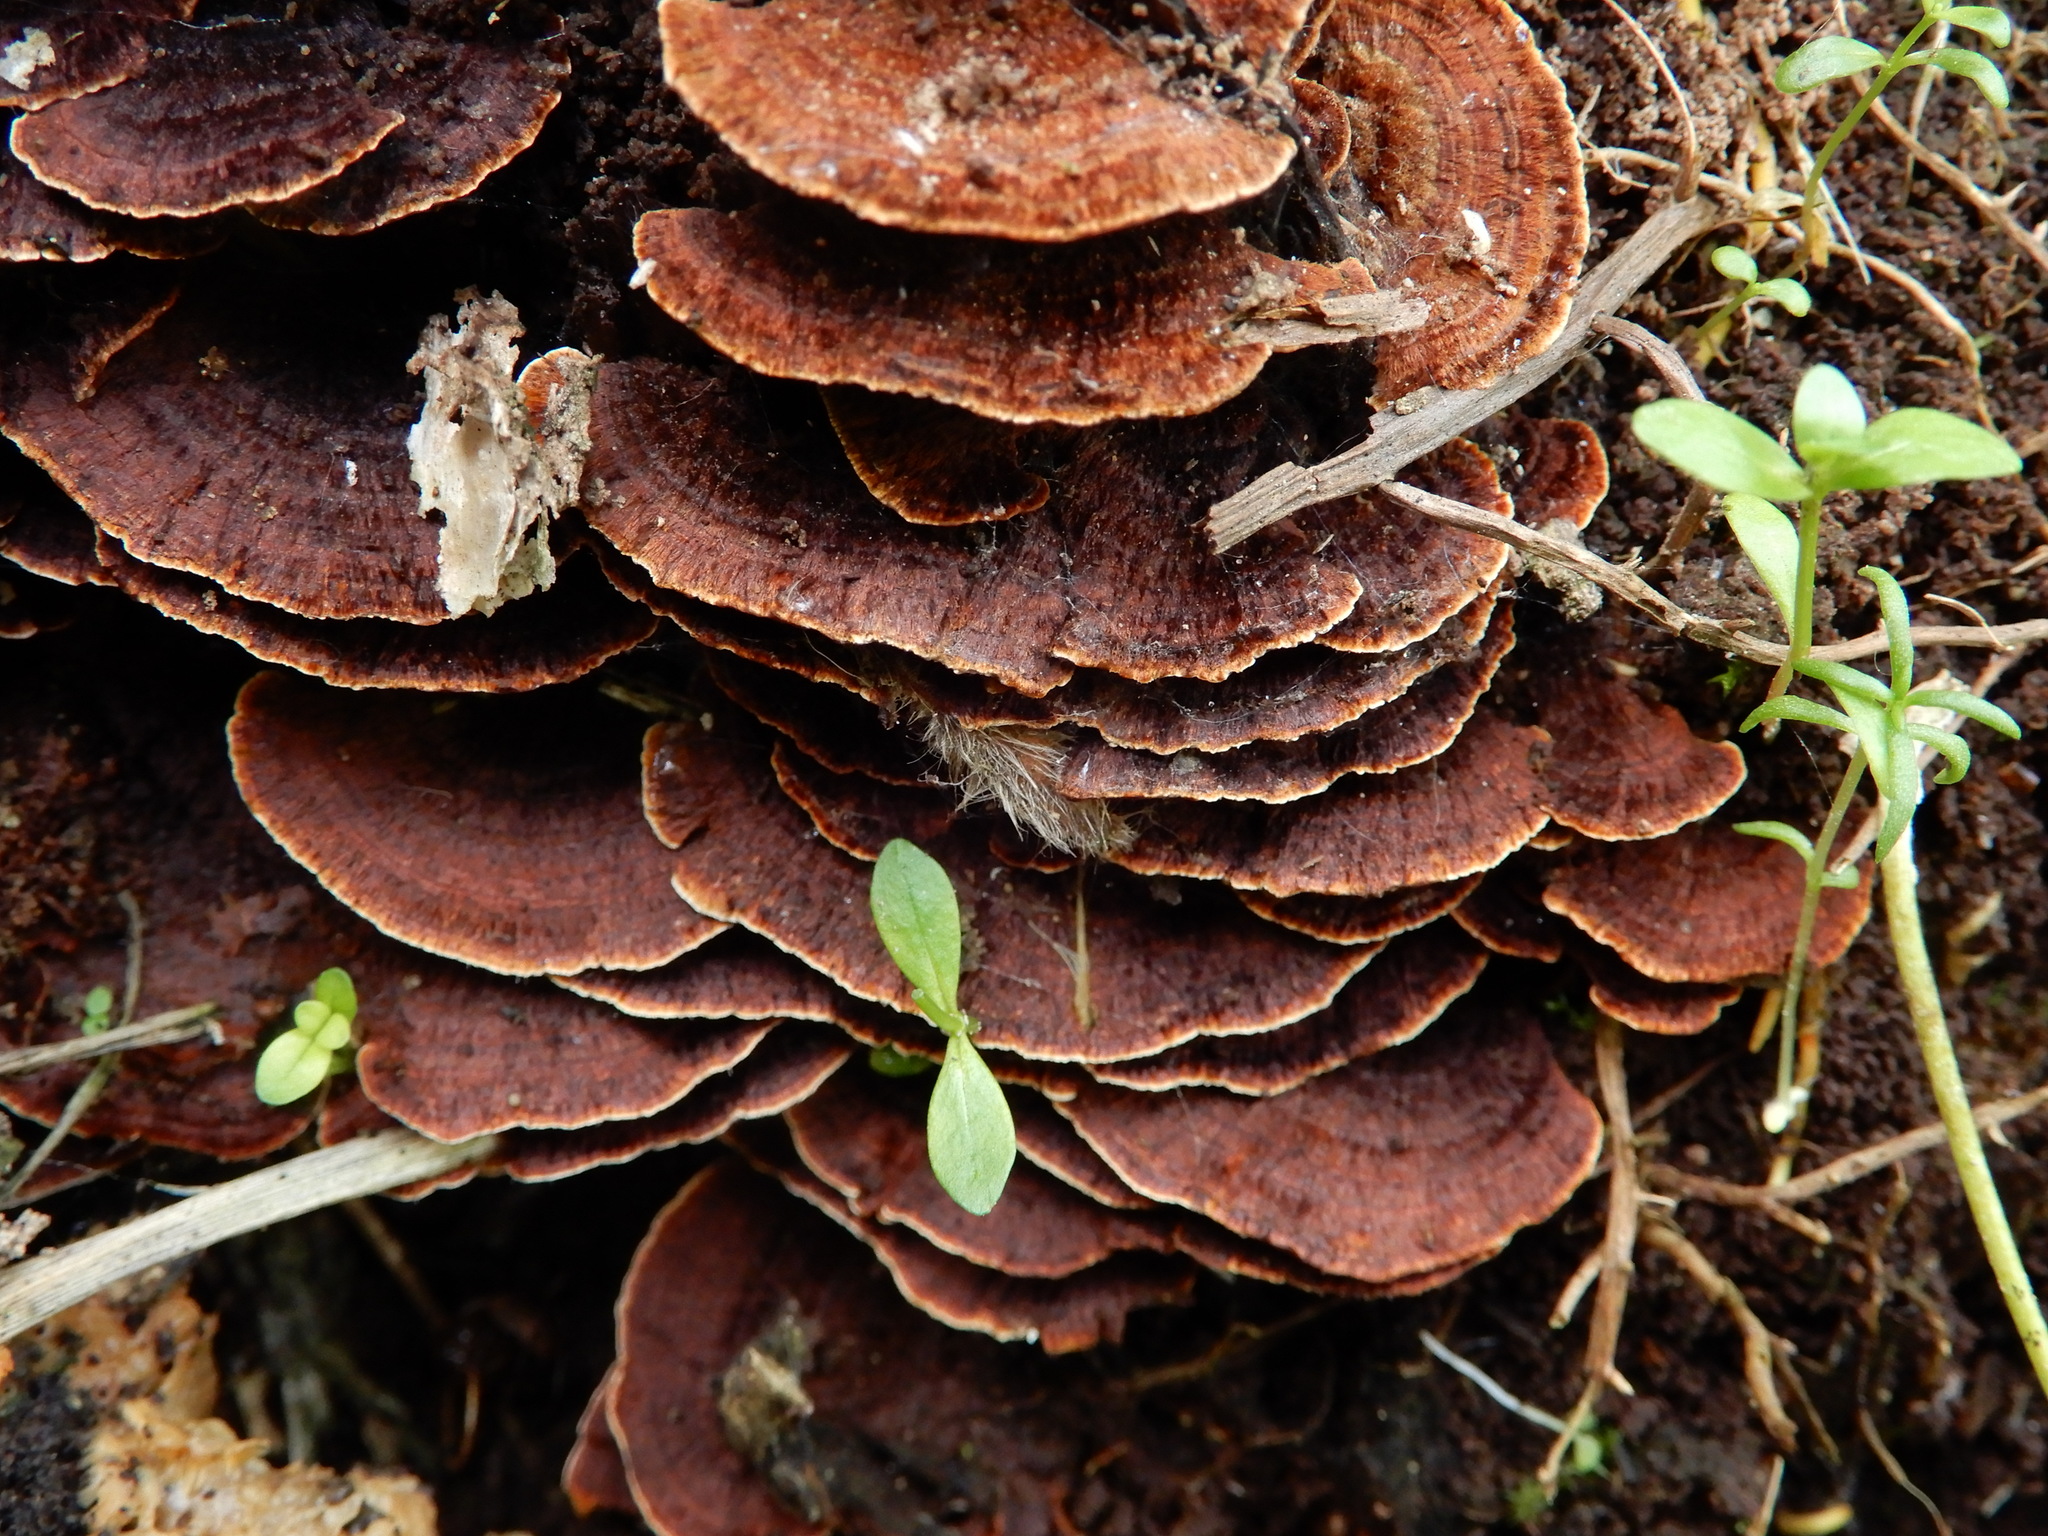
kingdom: Fungi
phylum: Basidiomycota
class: Agaricomycetes
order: Hymenochaetales
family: Hymenochaetaceae
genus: Hymenochaete
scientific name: Hymenochaete microcycla
